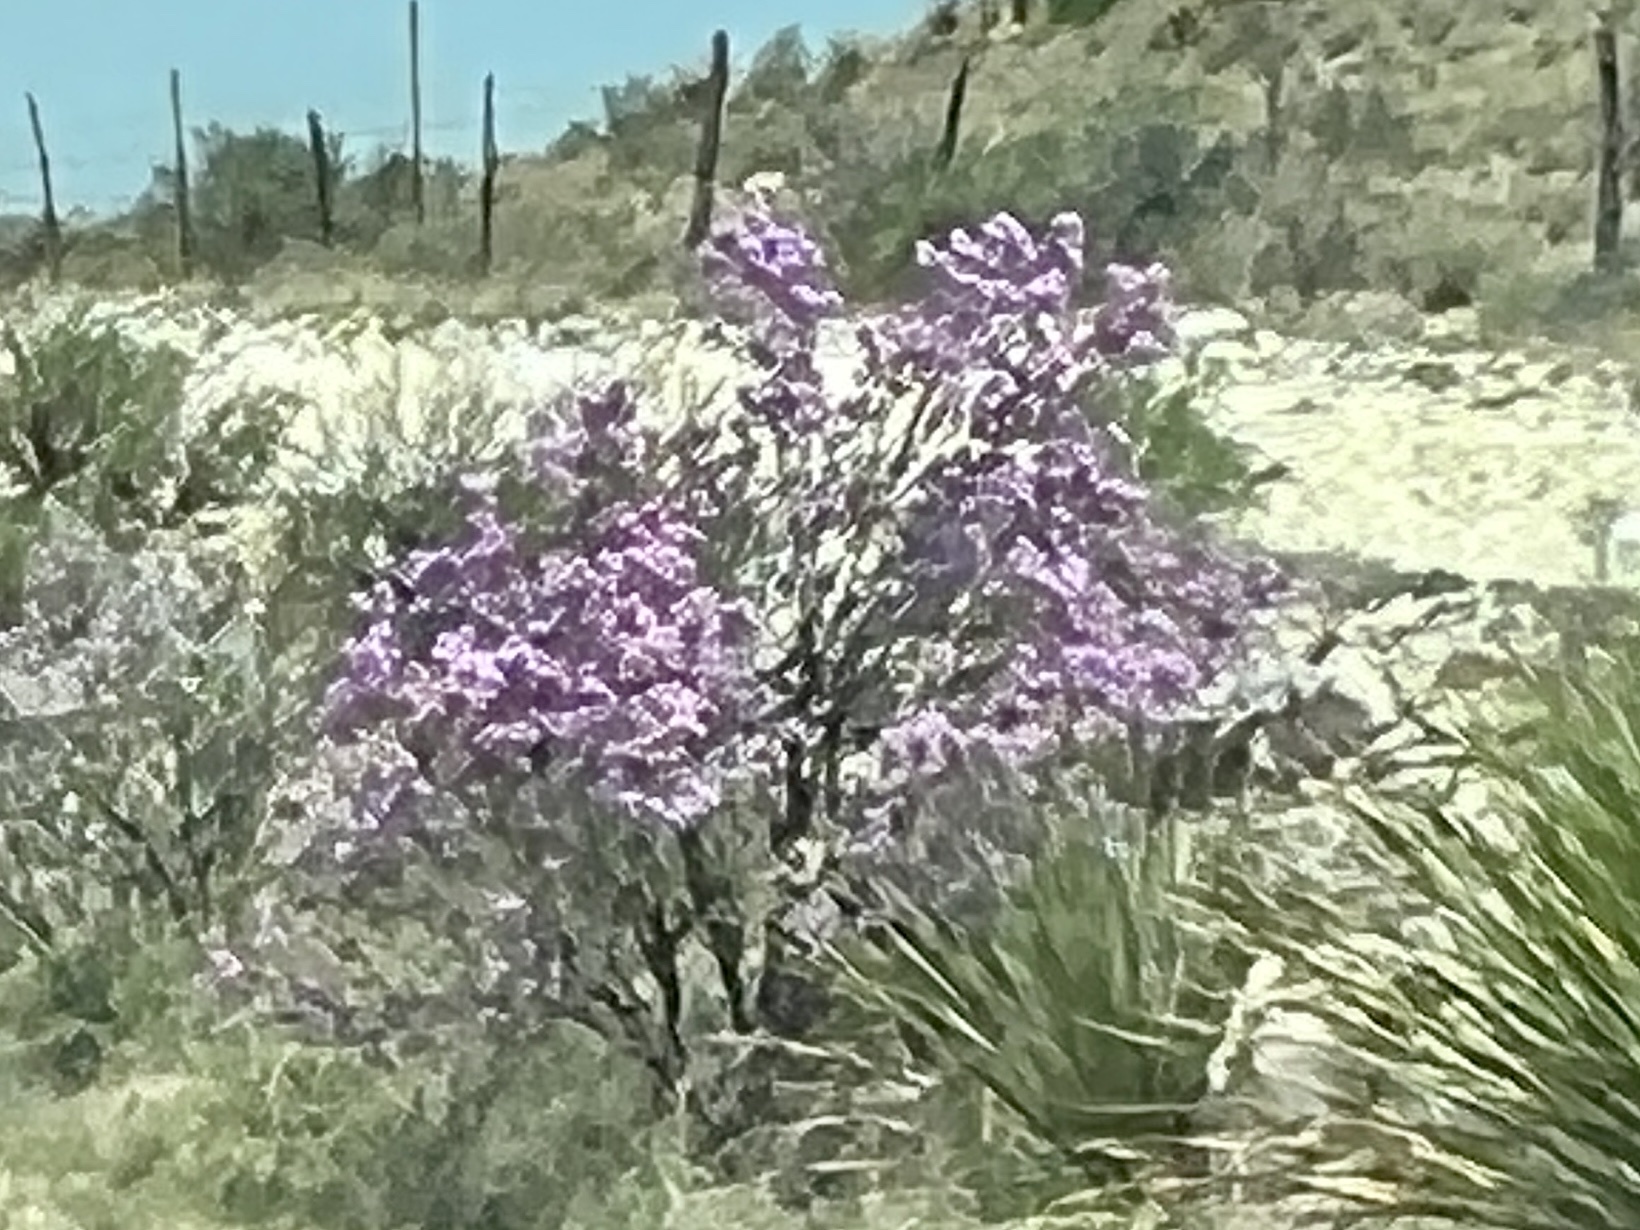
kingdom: Plantae
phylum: Tracheophyta
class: Magnoliopsida
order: Lamiales
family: Scrophulariaceae
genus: Leucophyllum
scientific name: Leucophyllum frutescens
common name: Texas silverleaf
